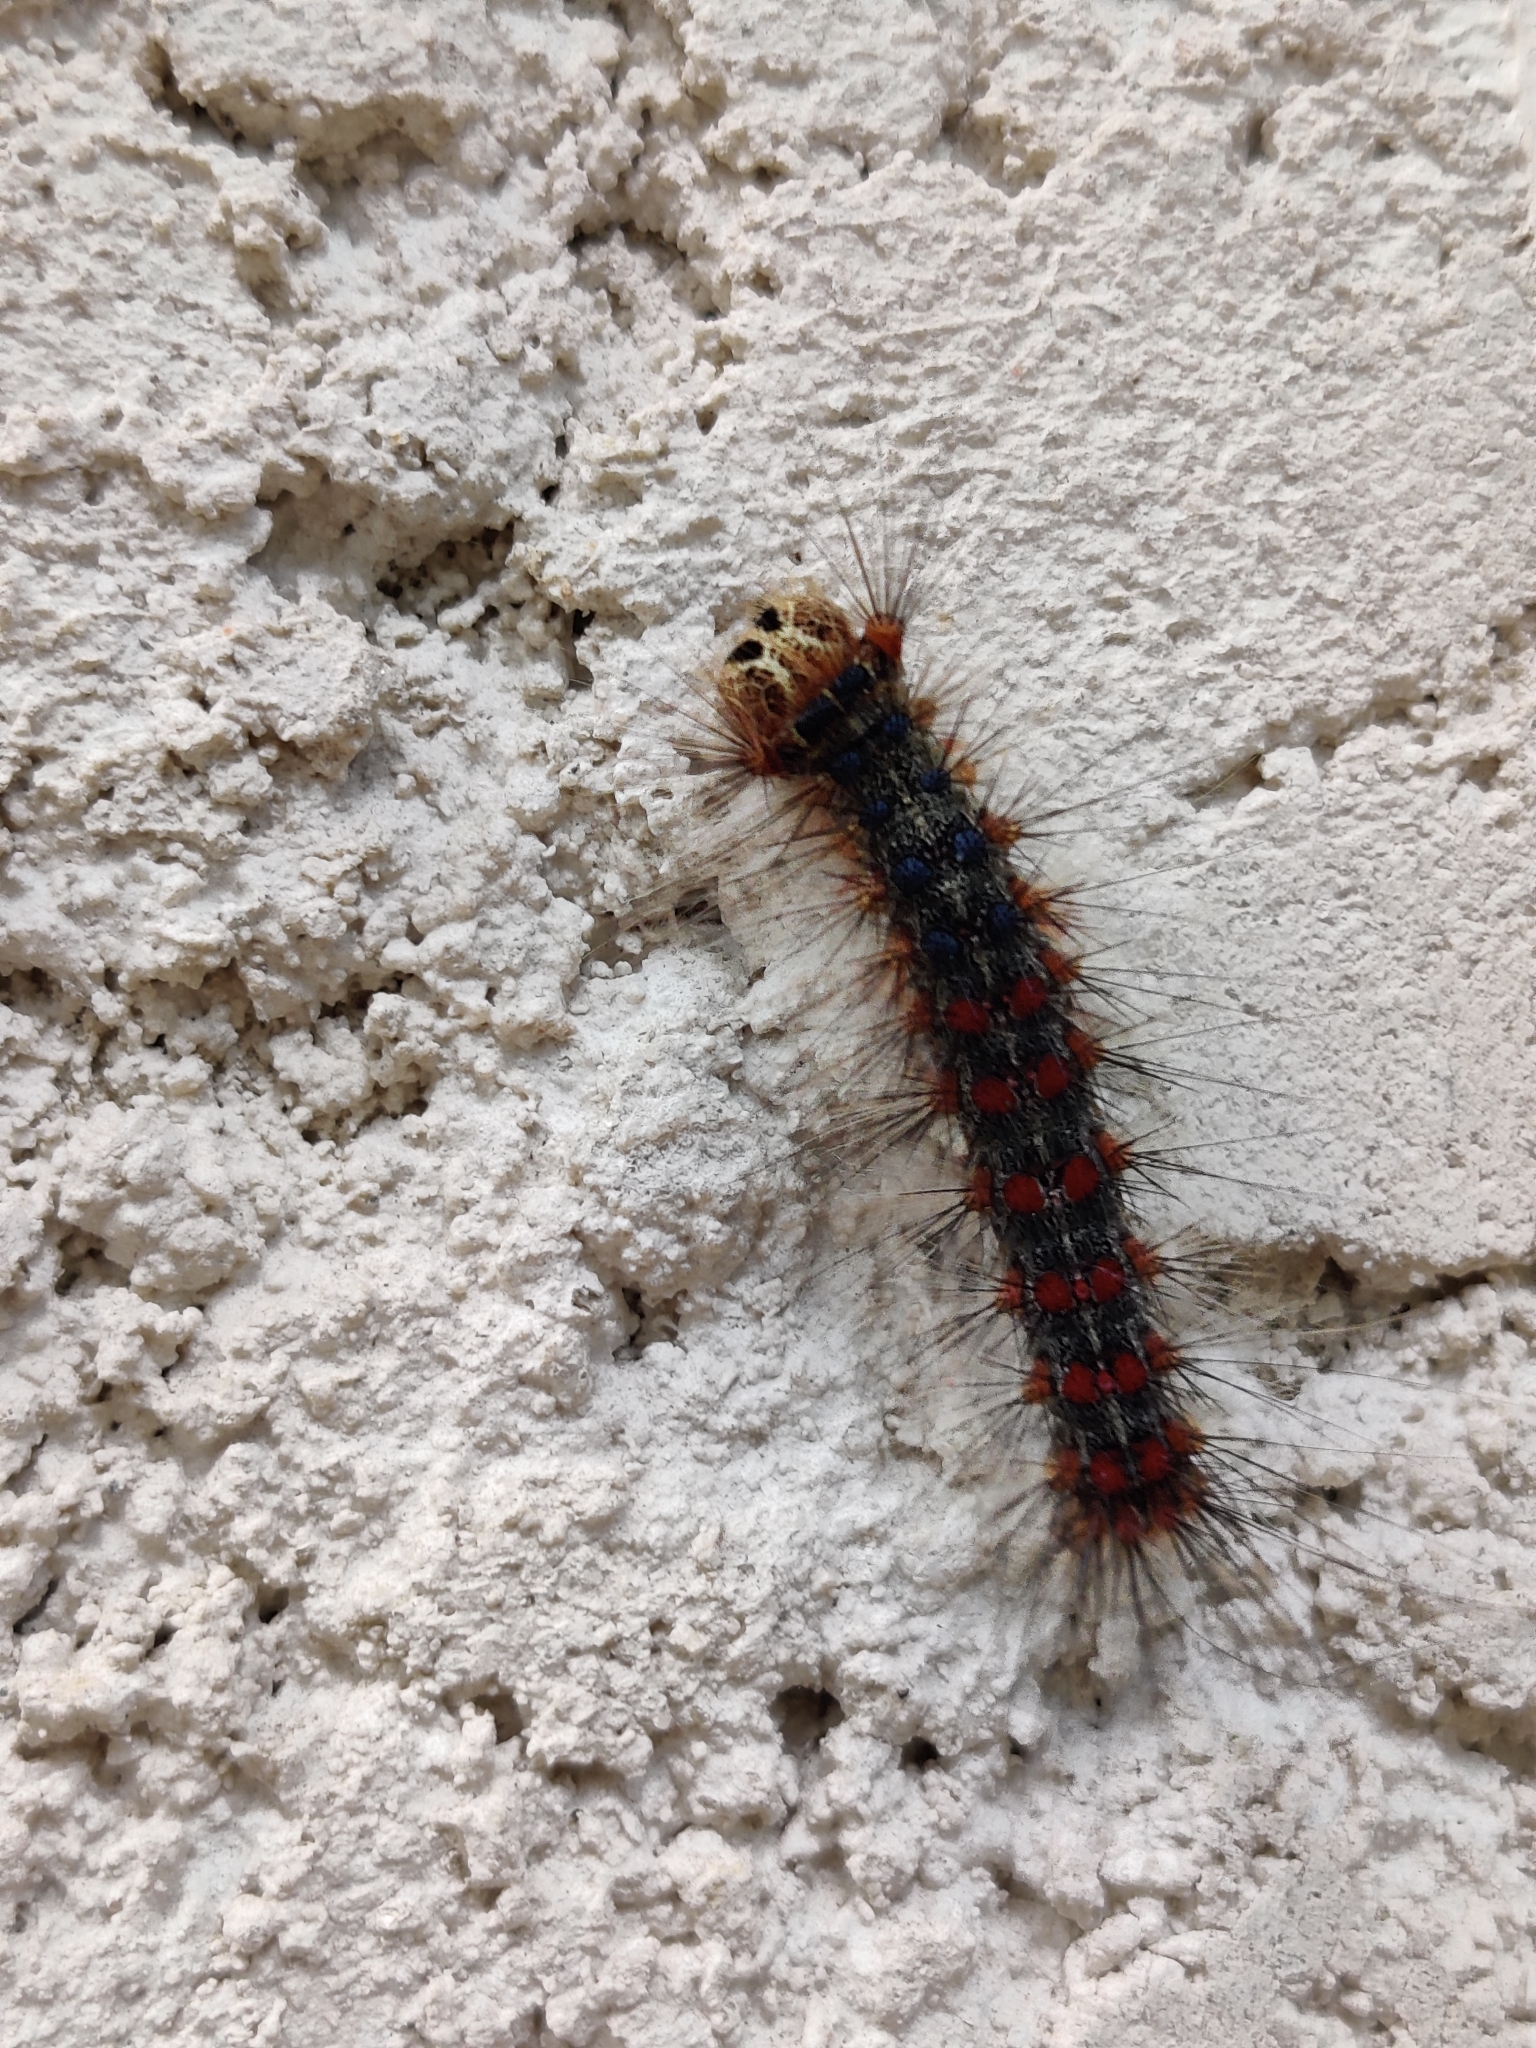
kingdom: Animalia
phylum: Arthropoda
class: Insecta
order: Lepidoptera
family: Erebidae
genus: Lymantria
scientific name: Lymantria dispar
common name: Gypsy moth
